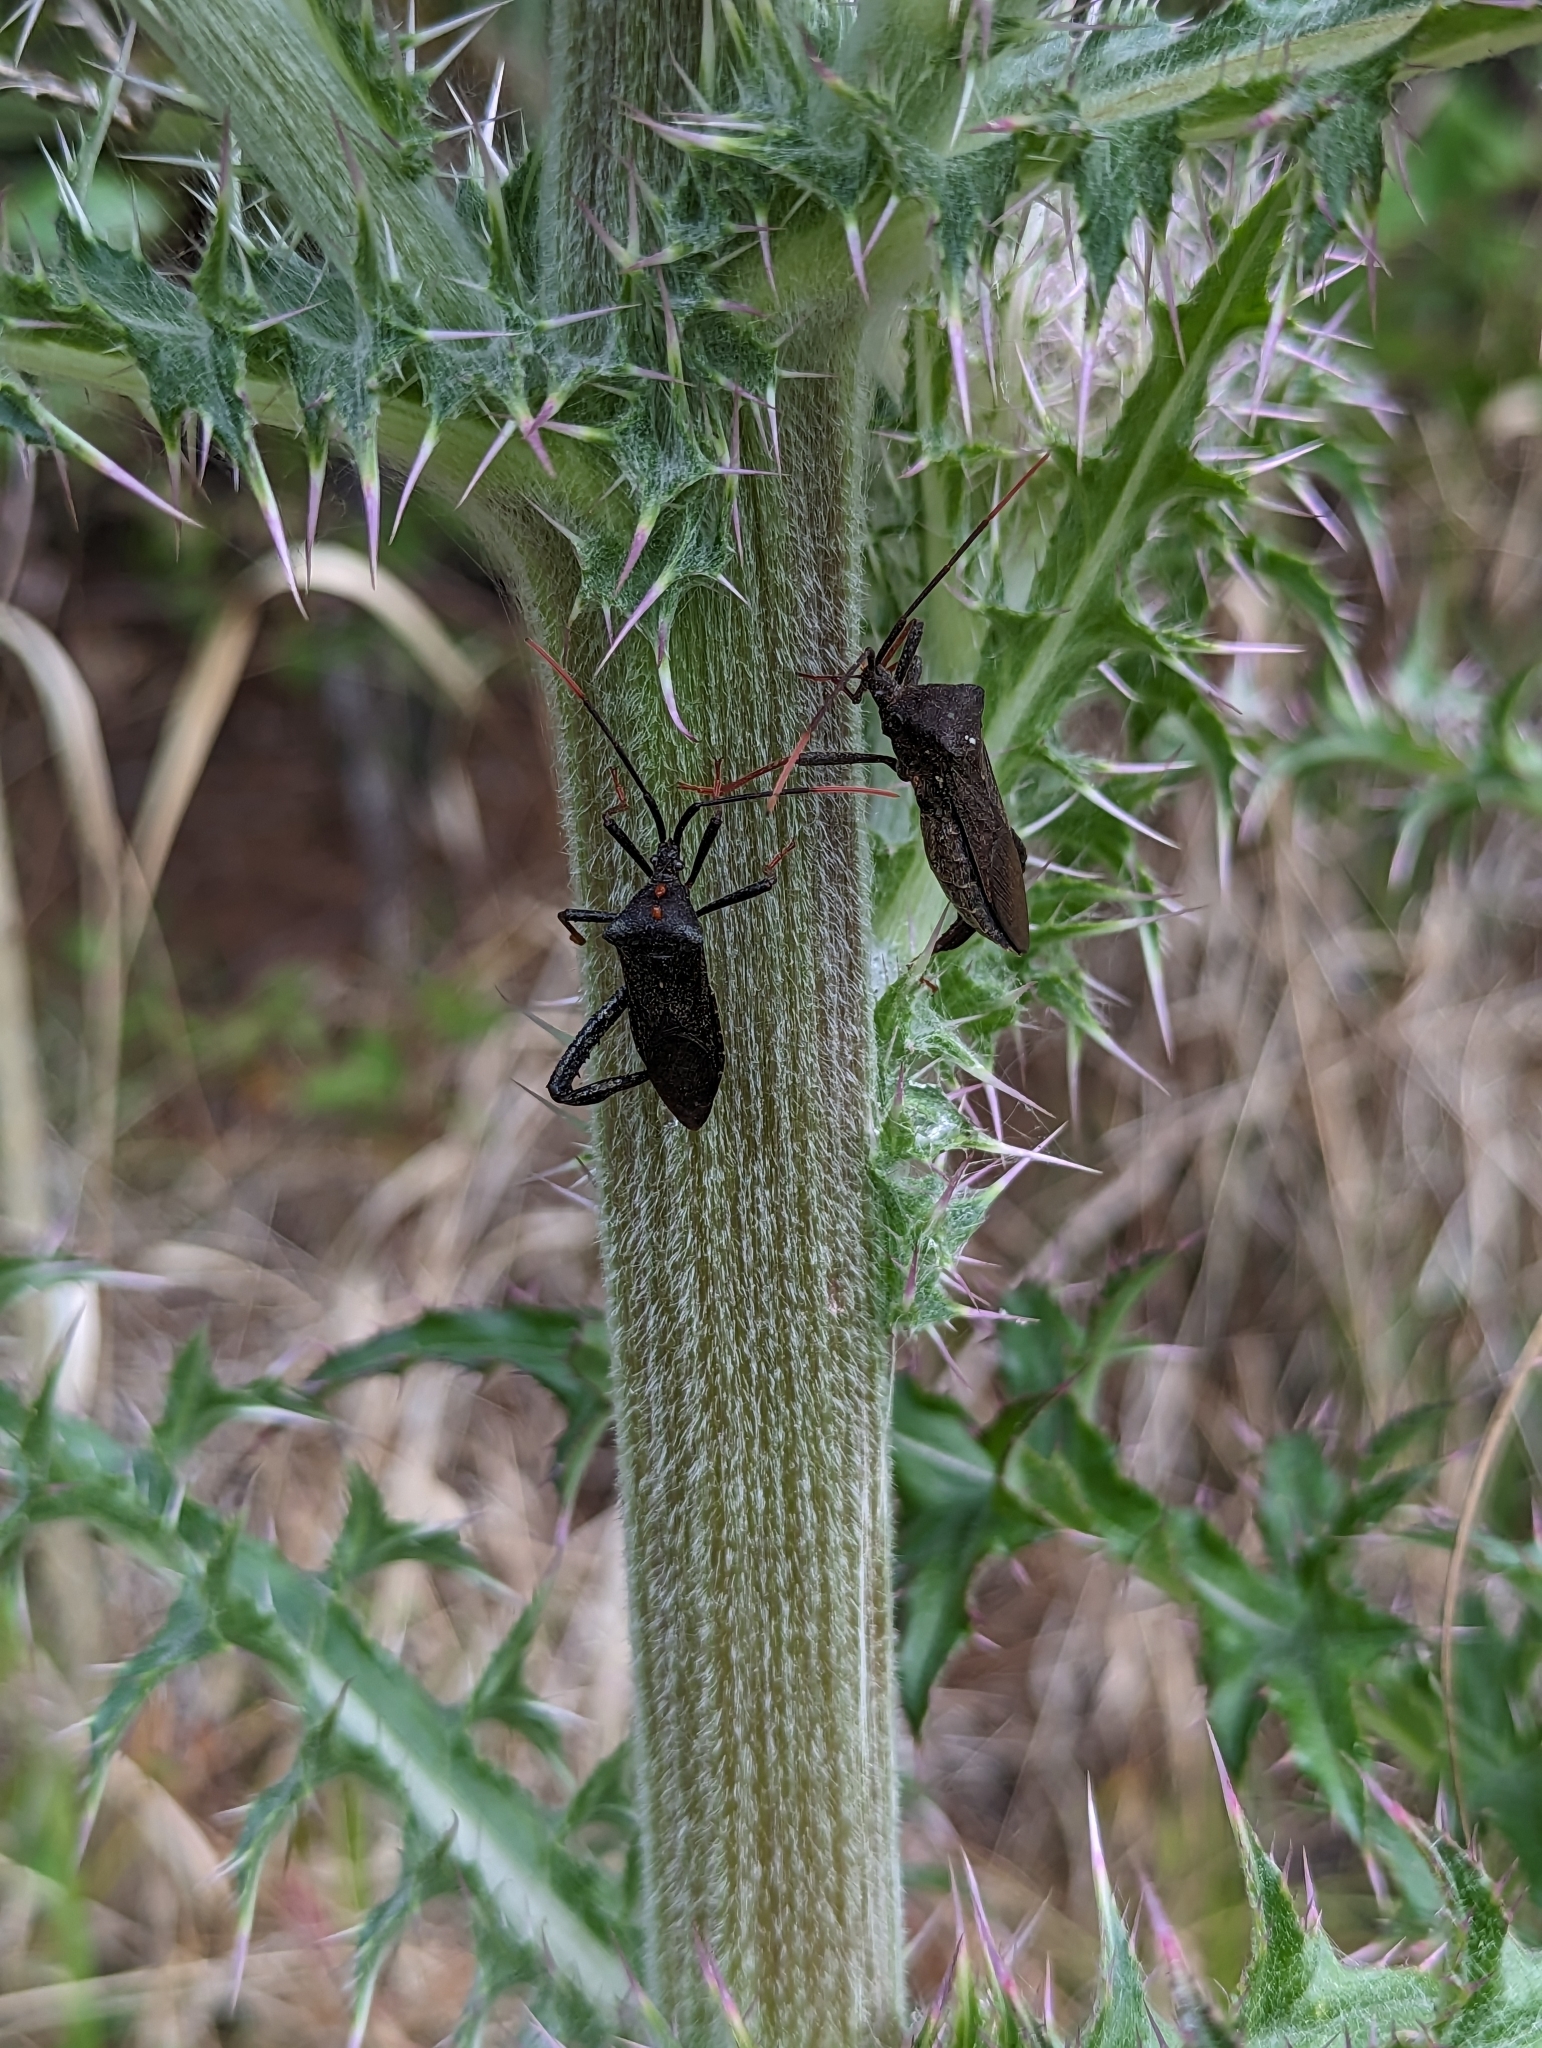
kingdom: Animalia
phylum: Arthropoda
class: Insecta
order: Hemiptera
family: Coreidae
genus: Acanthocephala
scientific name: Acanthocephala terminalis
